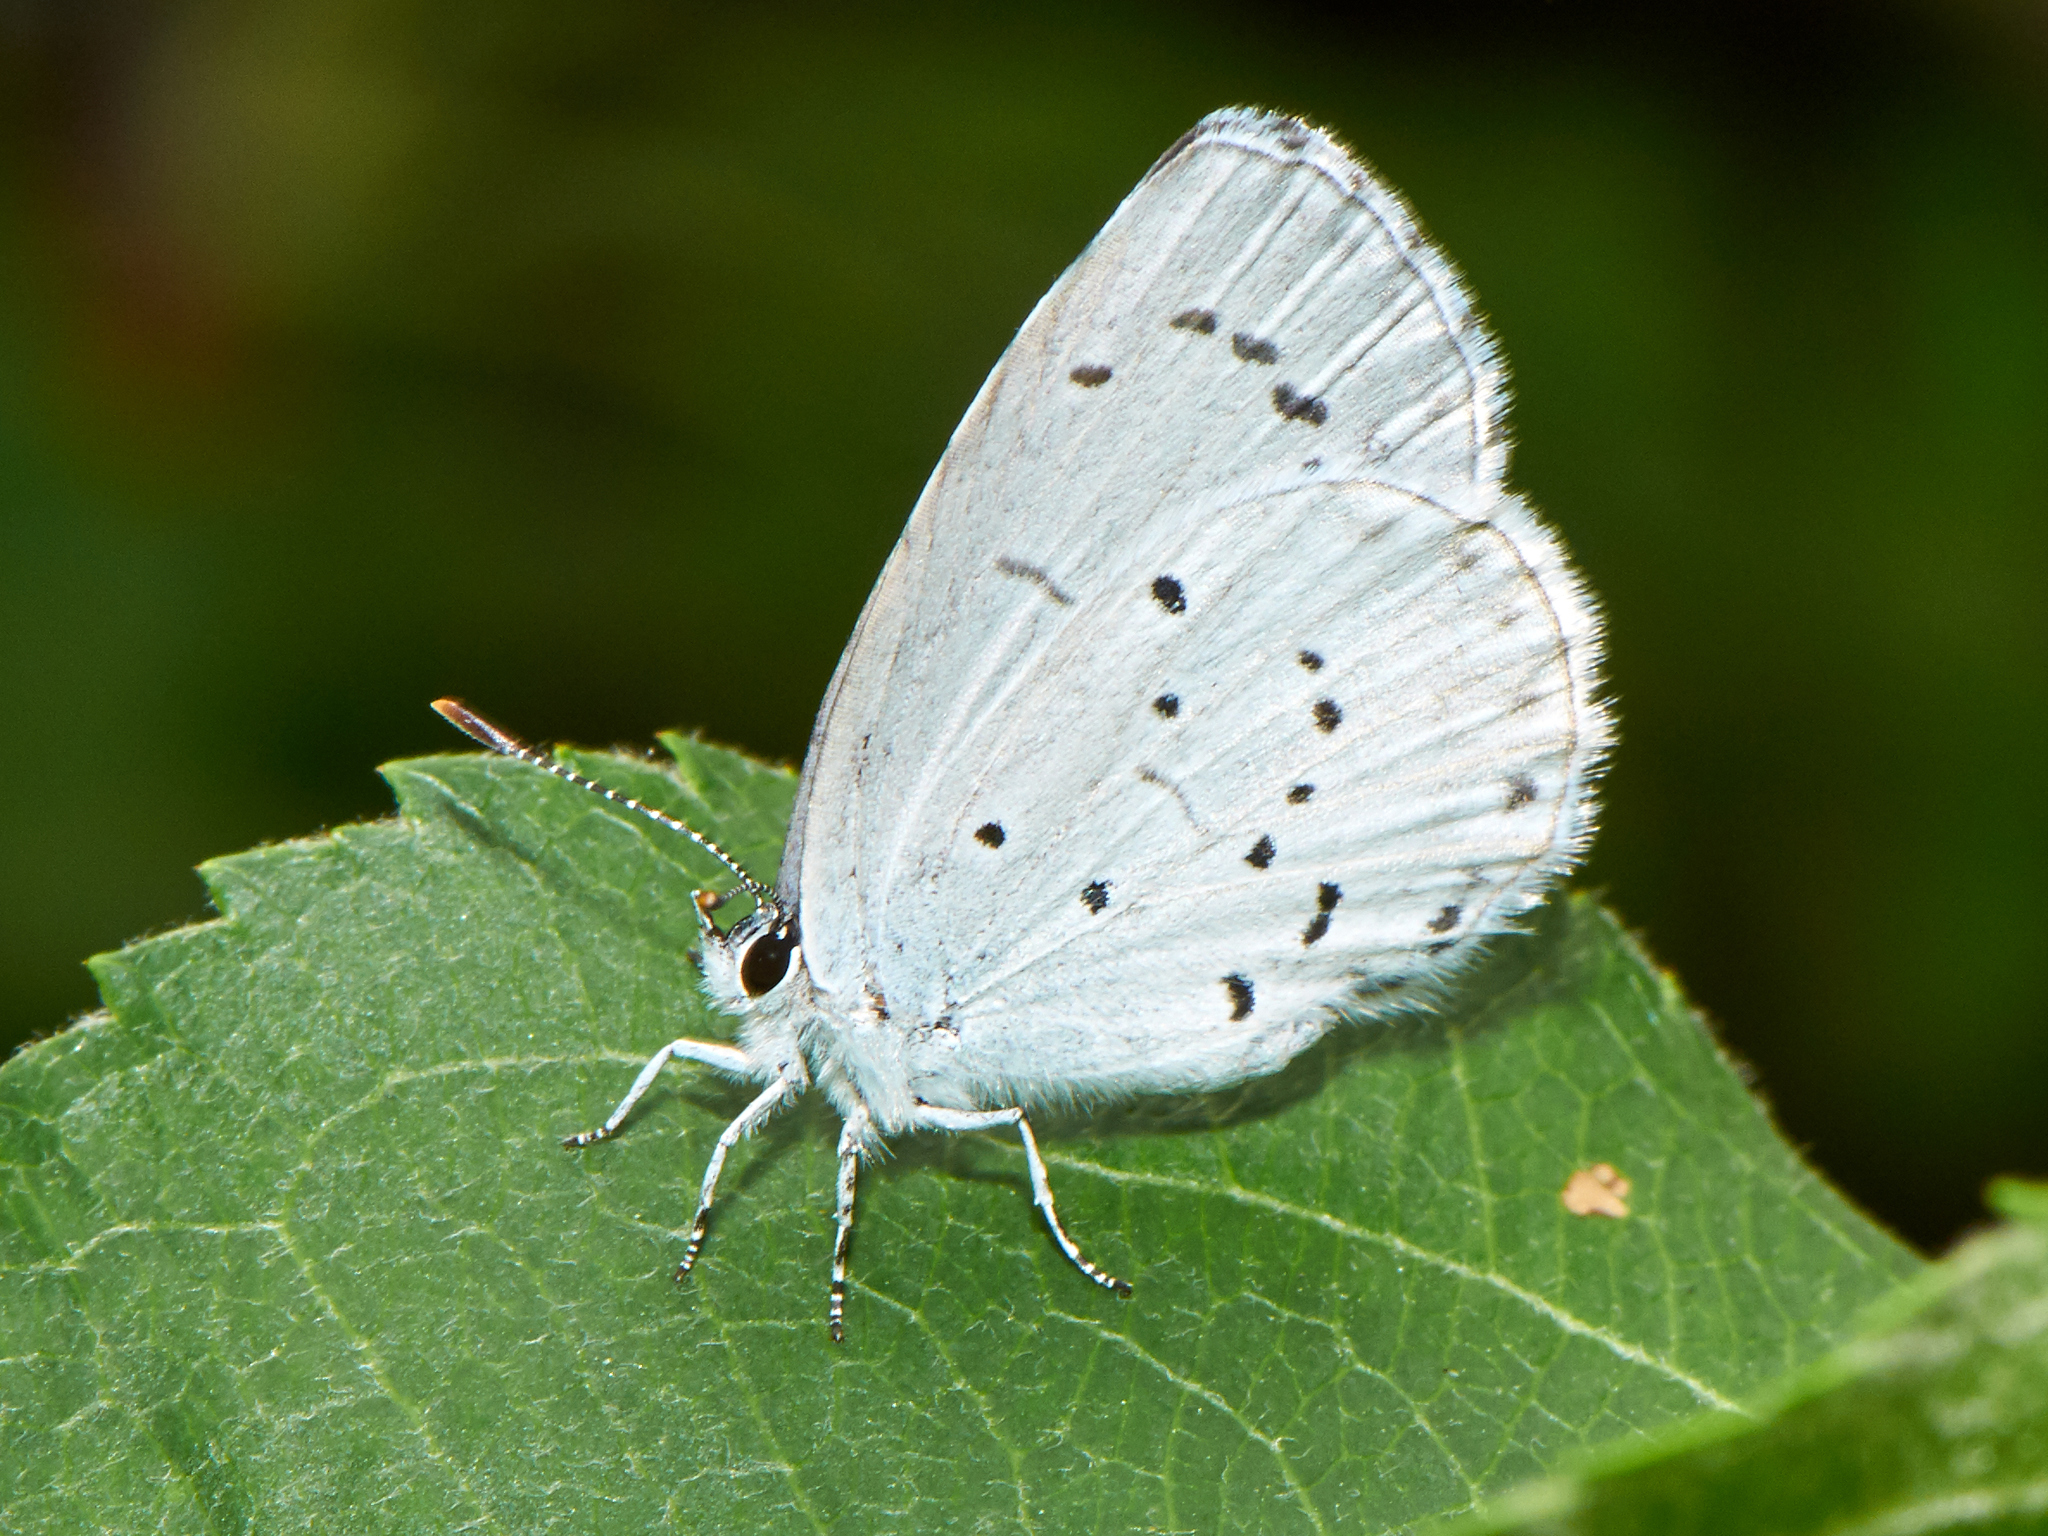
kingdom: Animalia
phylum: Arthropoda
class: Insecta
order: Lepidoptera
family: Lycaenidae
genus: Celastrina
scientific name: Celastrina argiolus
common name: Holly blue
